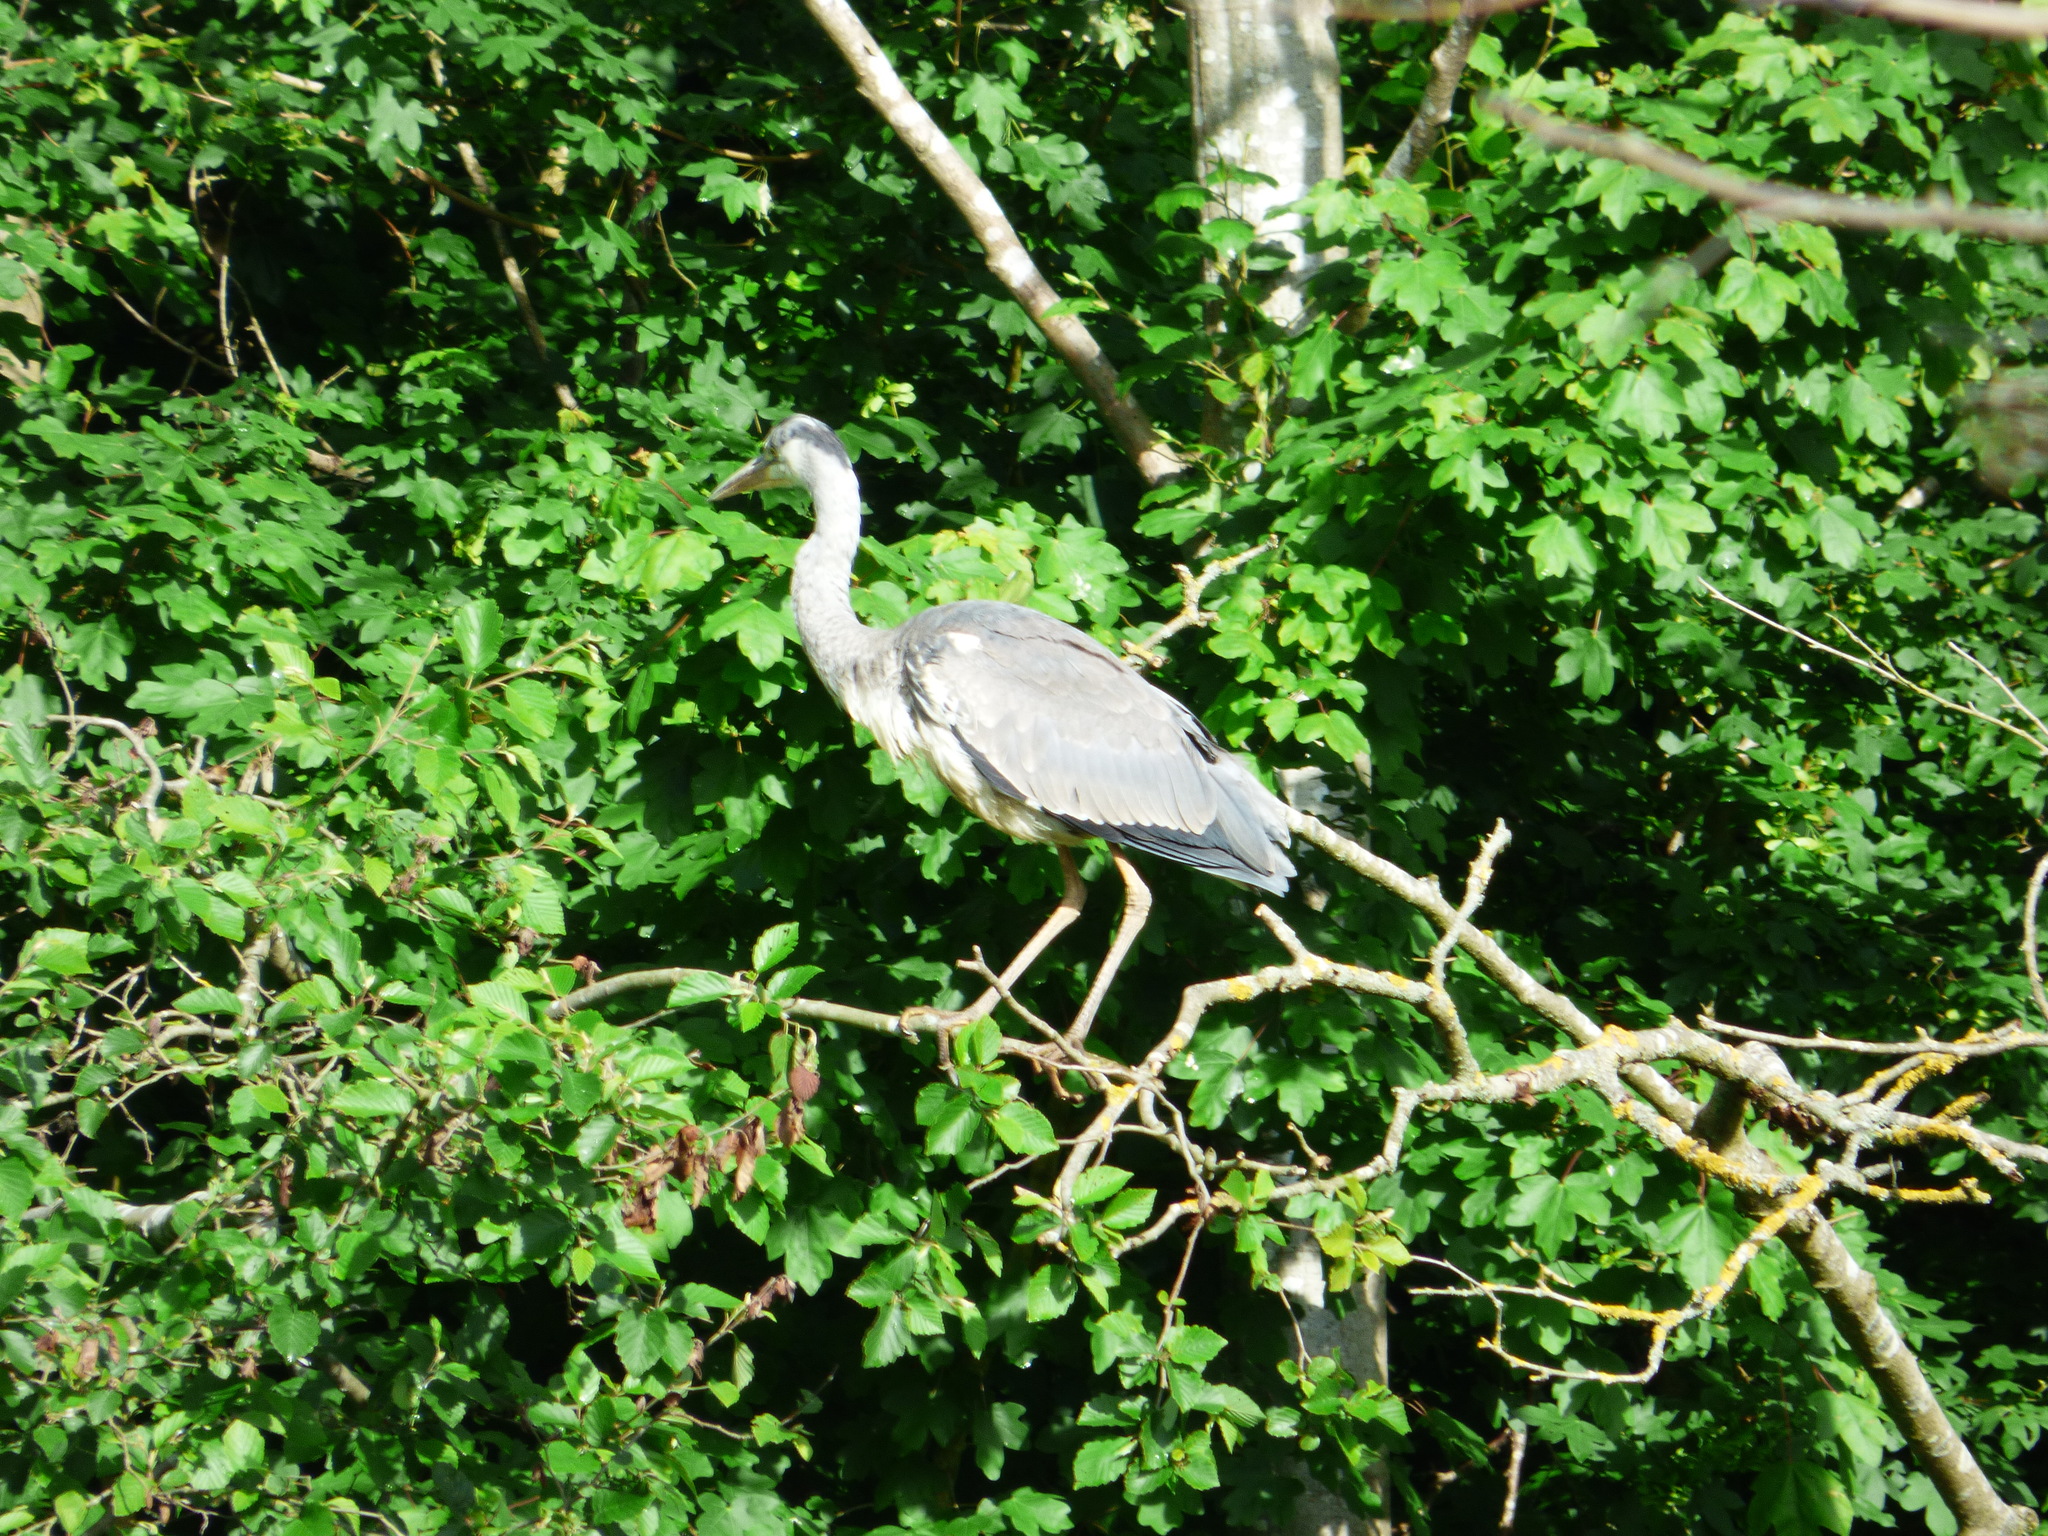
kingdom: Animalia
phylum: Chordata
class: Aves
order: Pelecaniformes
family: Ardeidae
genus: Ardea
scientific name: Ardea cinerea
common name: Grey heron
